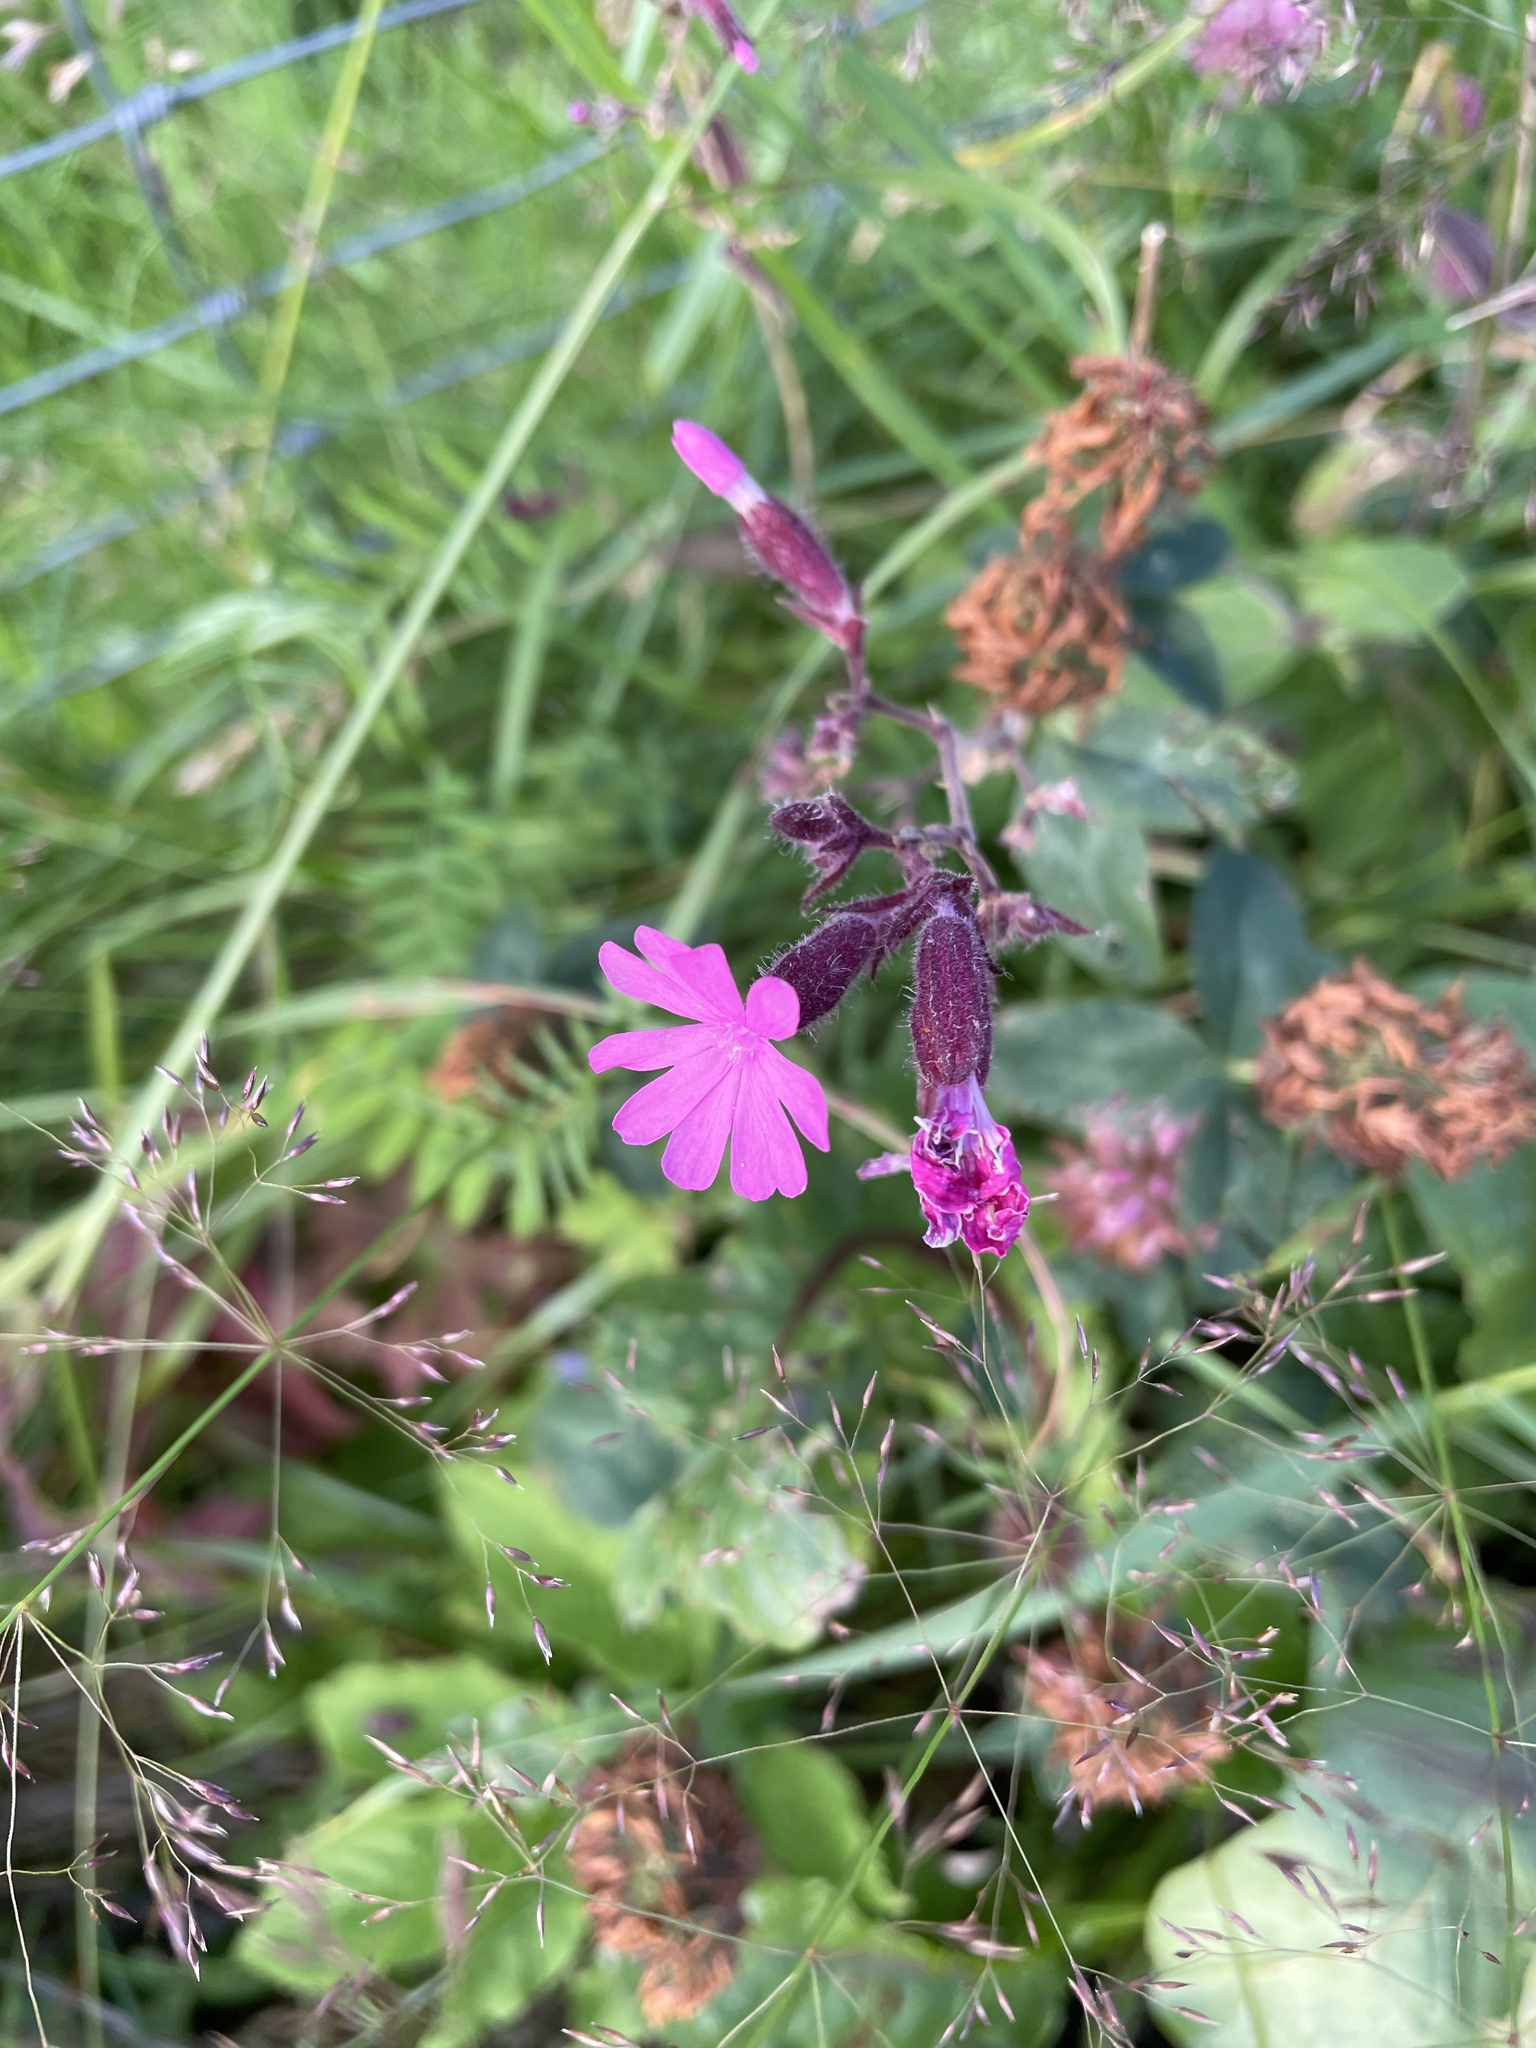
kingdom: Plantae
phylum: Tracheophyta
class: Magnoliopsida
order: Caryophyllales
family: Caryophyllaceae
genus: Silene
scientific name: Silene dioica
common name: Red campion
